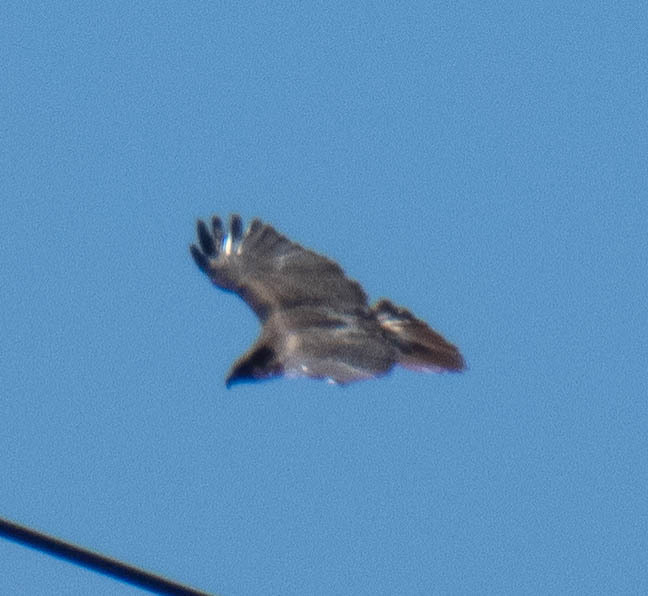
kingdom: Animalia
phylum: Chordata
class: Aves
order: Accipitriformes
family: Accipitridae
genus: Buteo
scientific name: Buteo jamaicensis
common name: Red-tailed hawk
